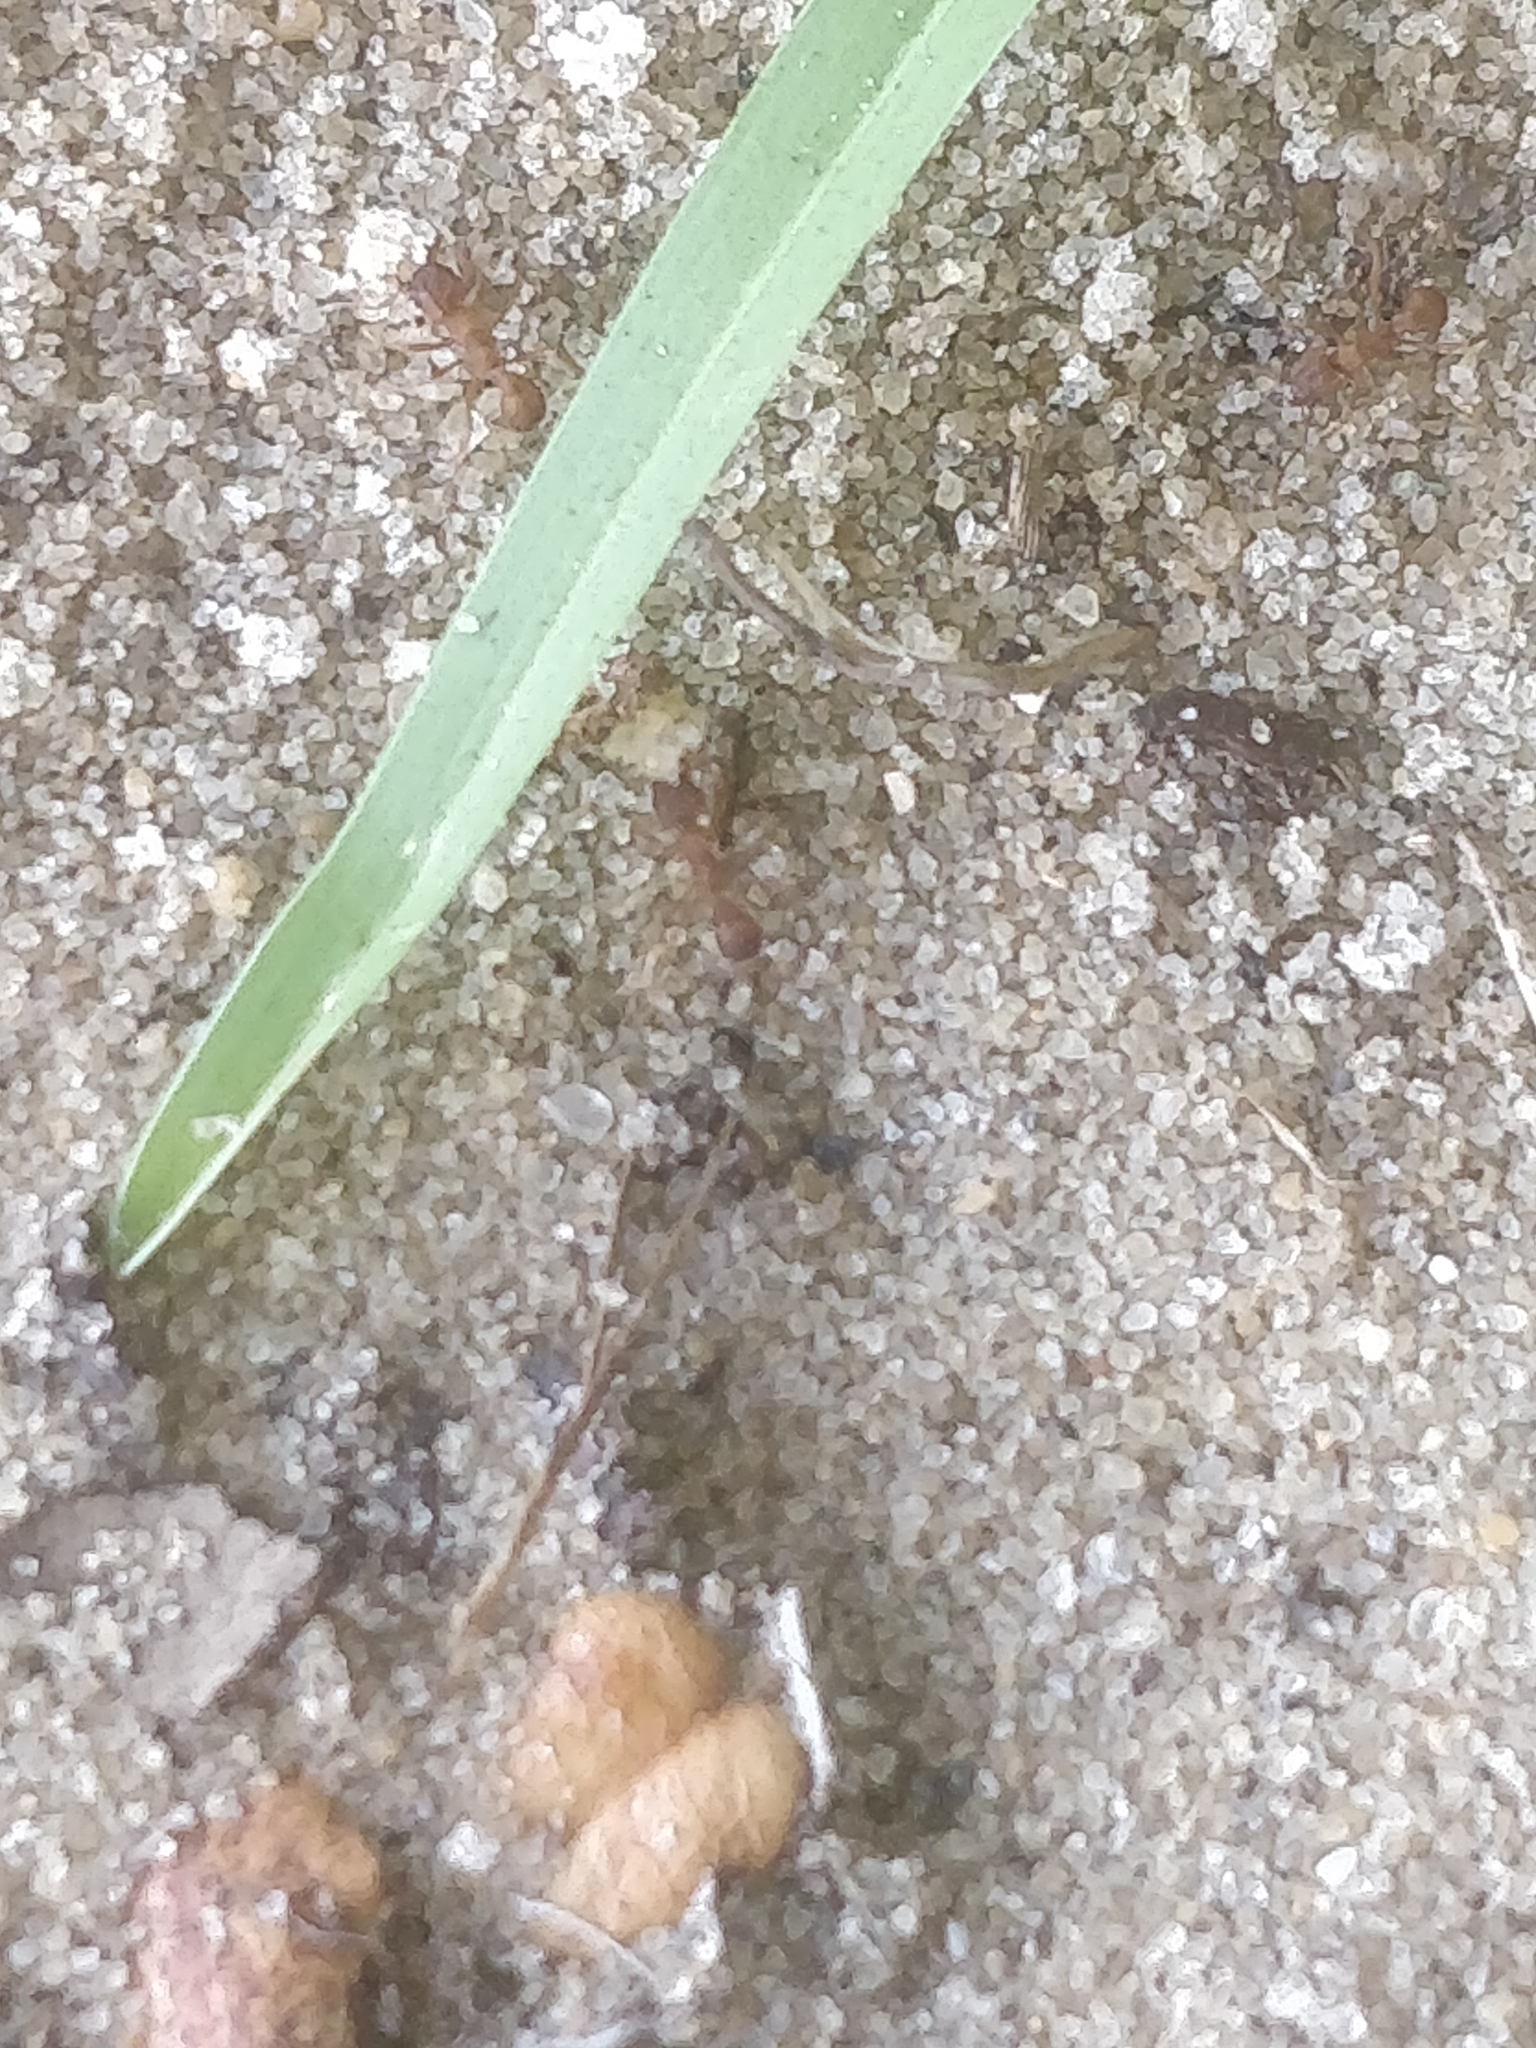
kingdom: Animalia
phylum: Arthropoda
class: Insecta
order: Hymenoptera
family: Formicidae
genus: Trachymyrmex
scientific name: Trachymyrmex septentrionalis
